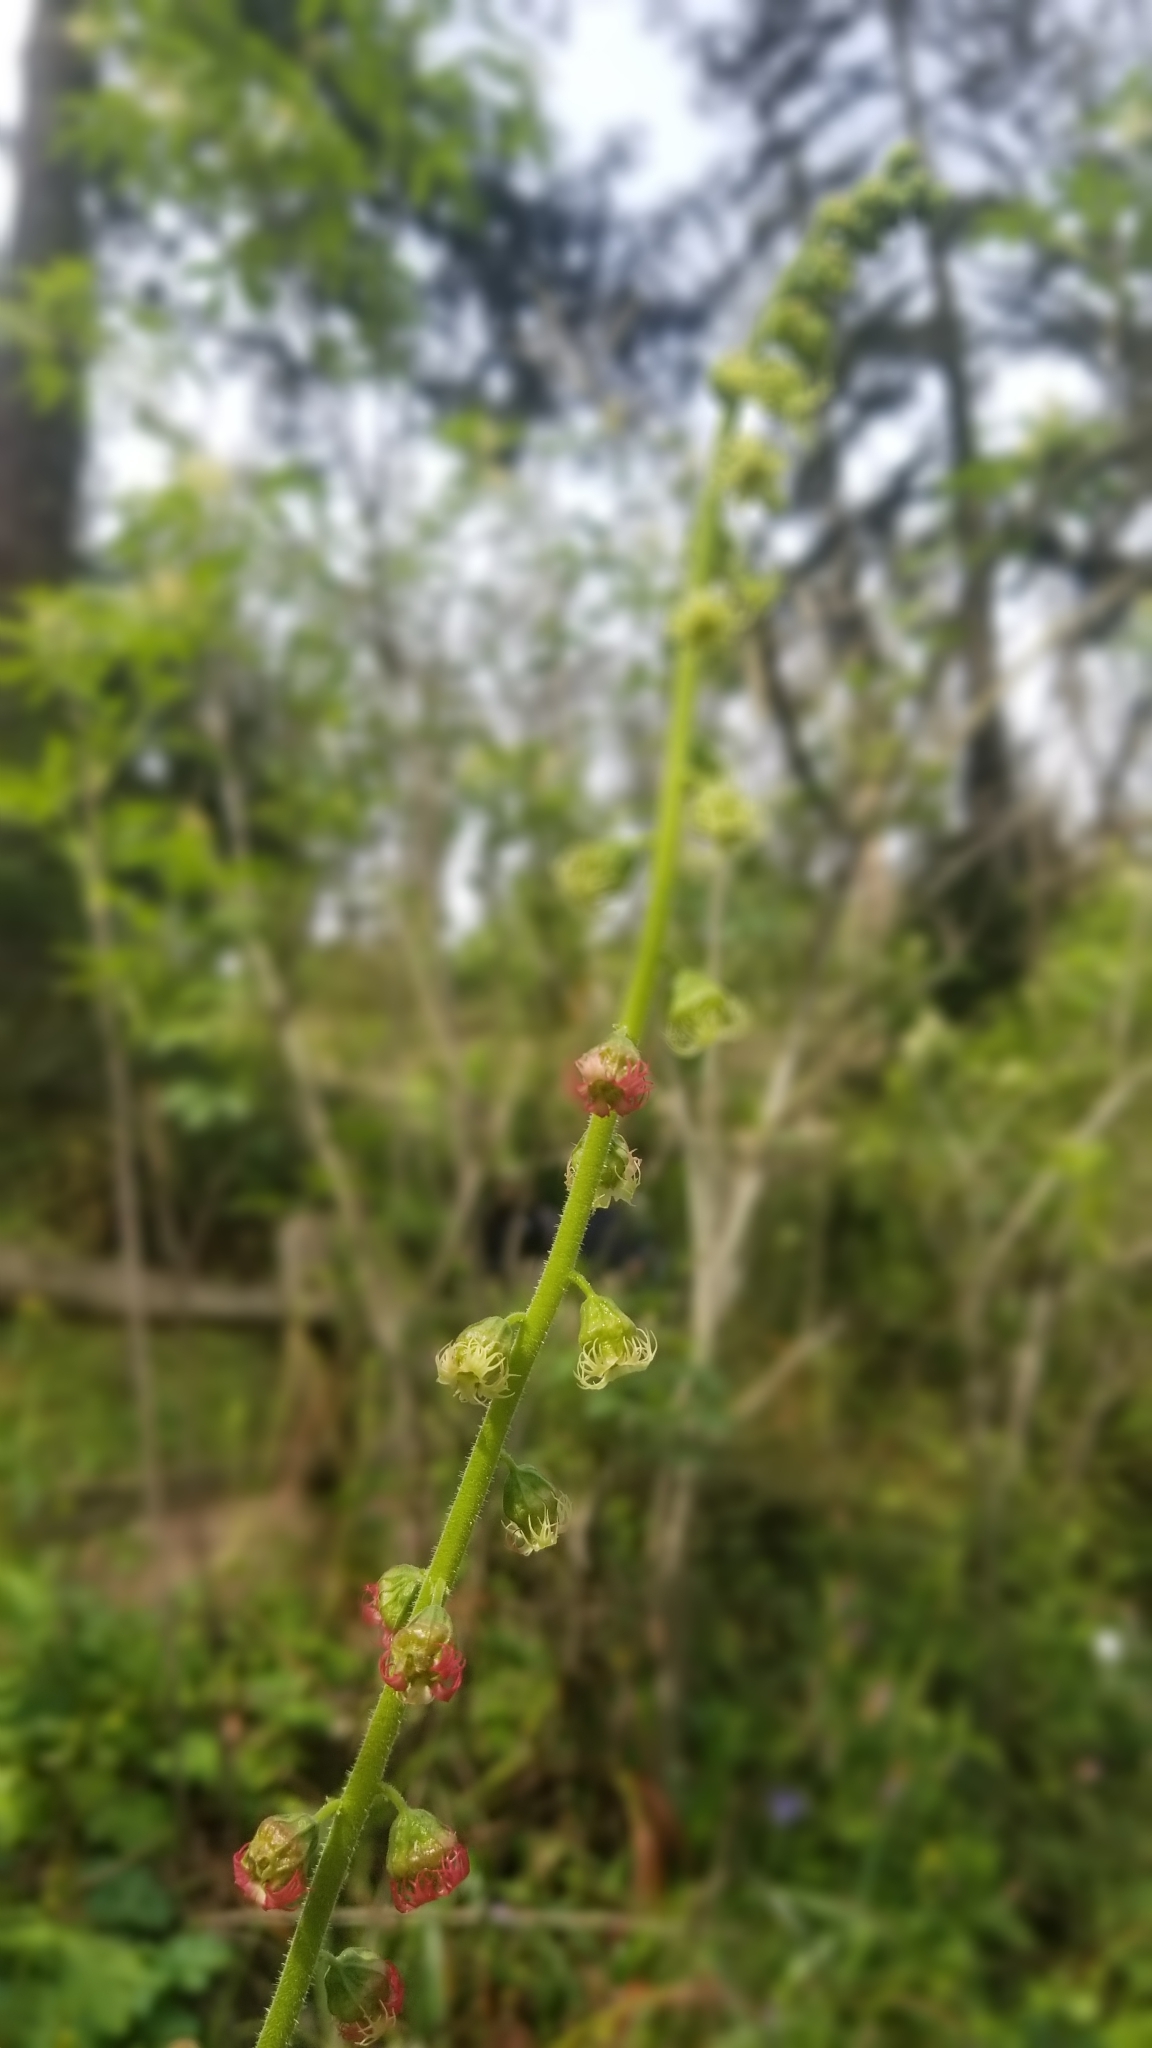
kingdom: Plantae
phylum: Tracheophyta
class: Magnoliopsida
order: Saxifragales
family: Saxifragaceae
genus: Tellima
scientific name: Tellima grandiflora
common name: Fringecups
